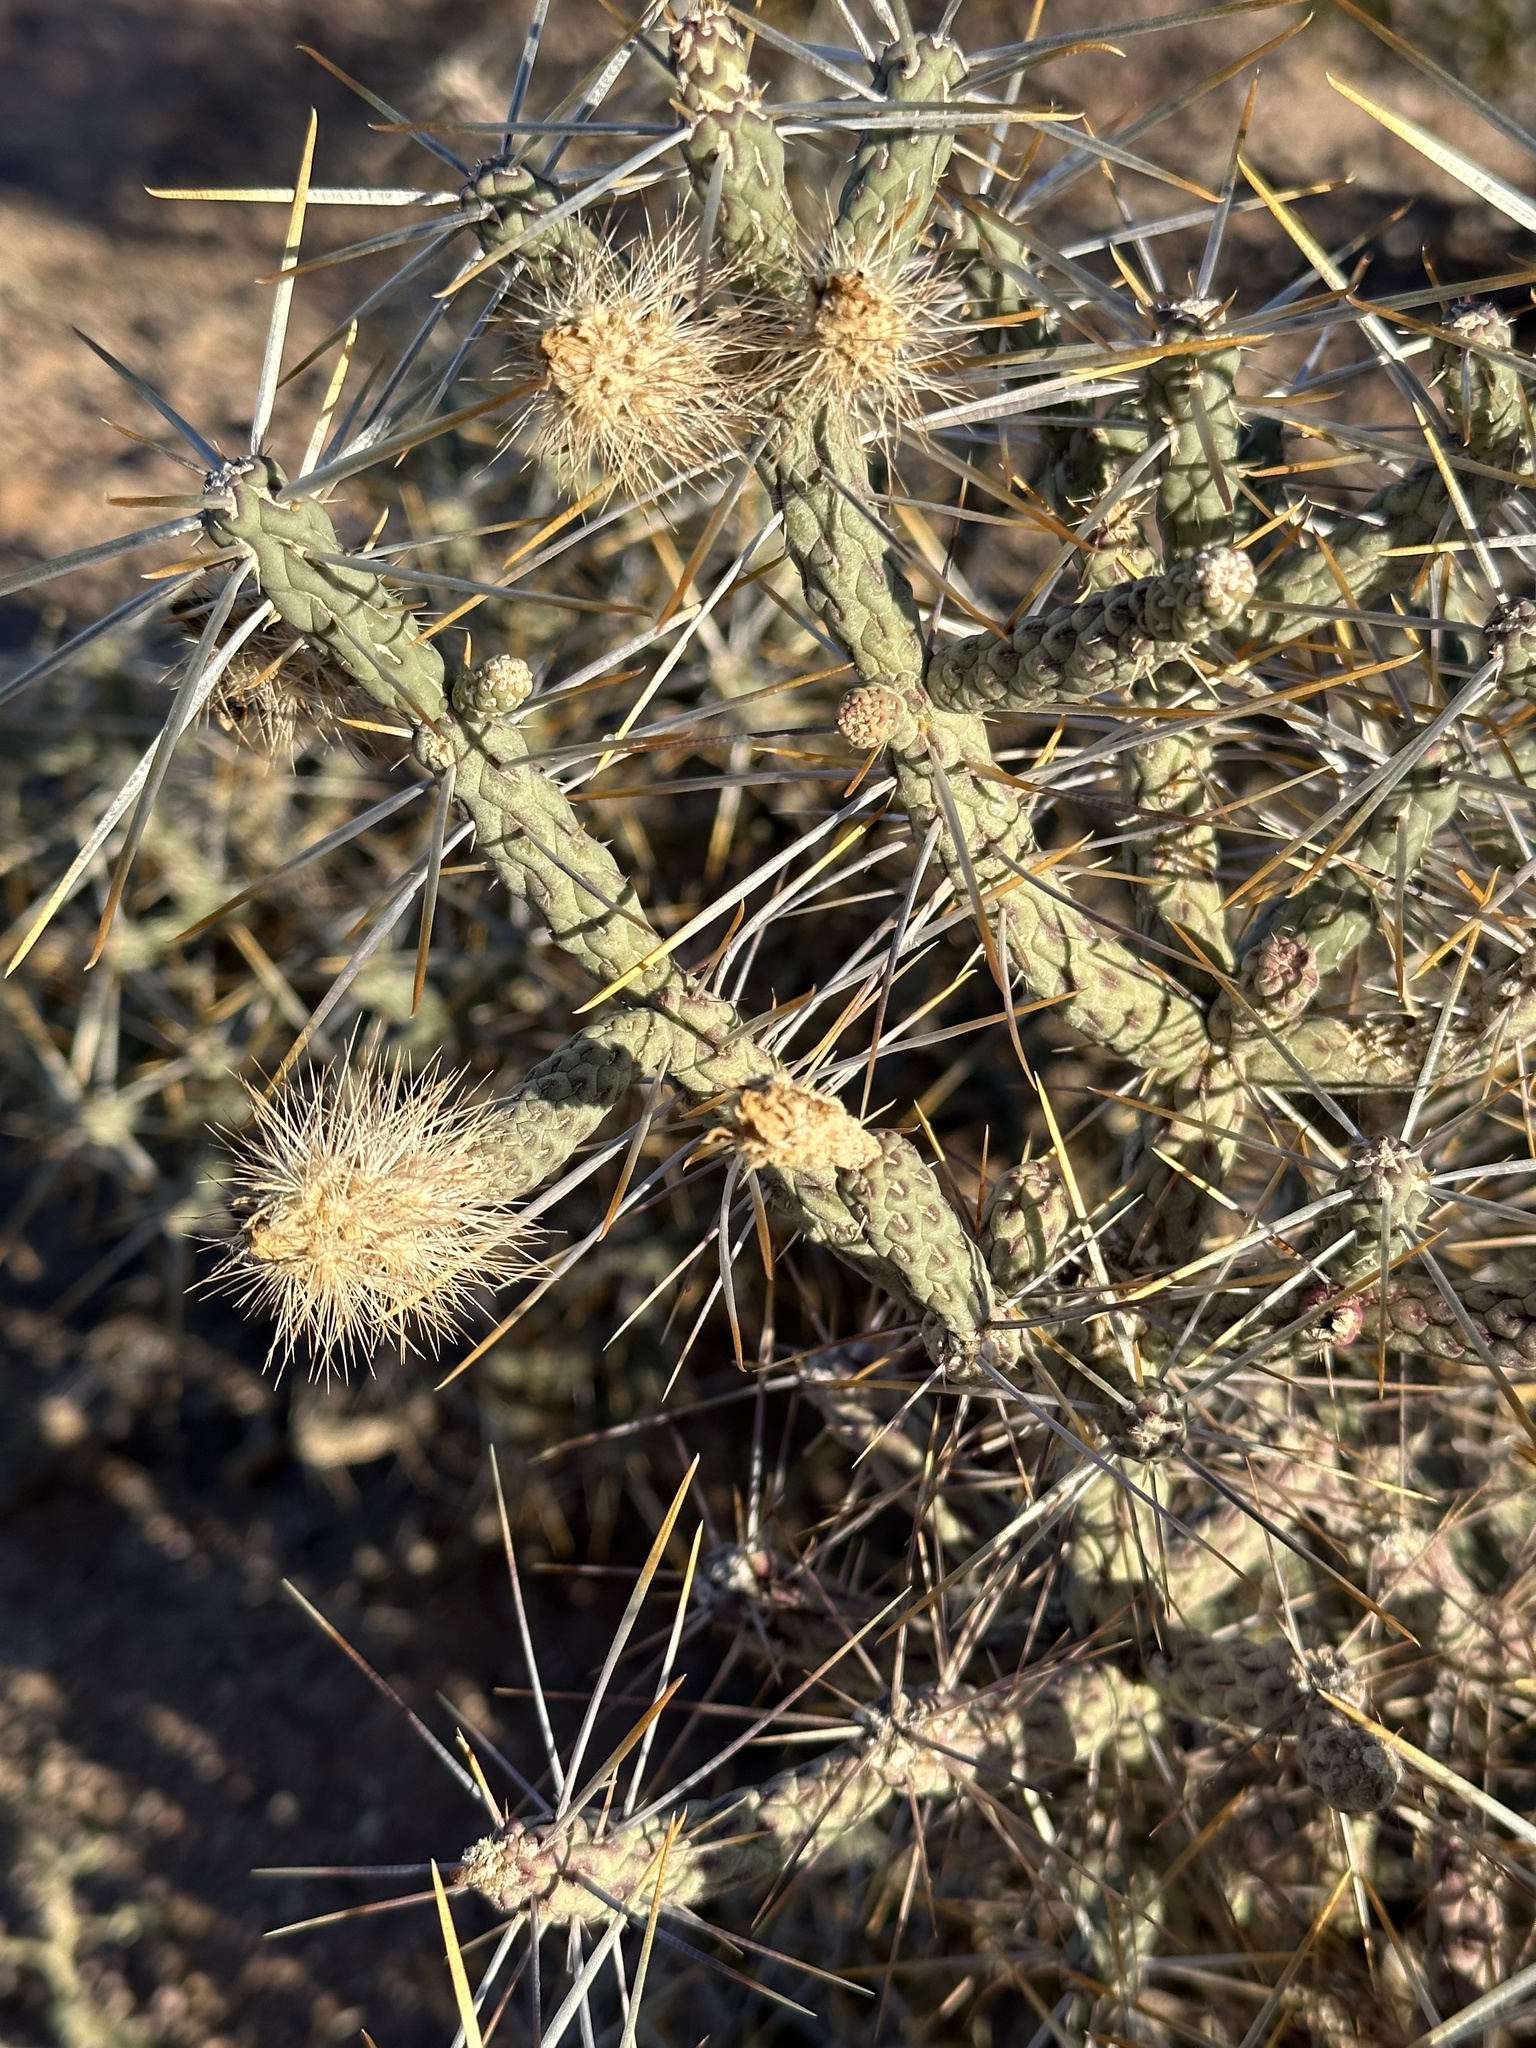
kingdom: Plantae
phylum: Tracheophyta
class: Magnoliopsida
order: Caryophyllales
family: Cactaceae
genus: Cylindropuntia
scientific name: Cylindropuntia ramosissima
